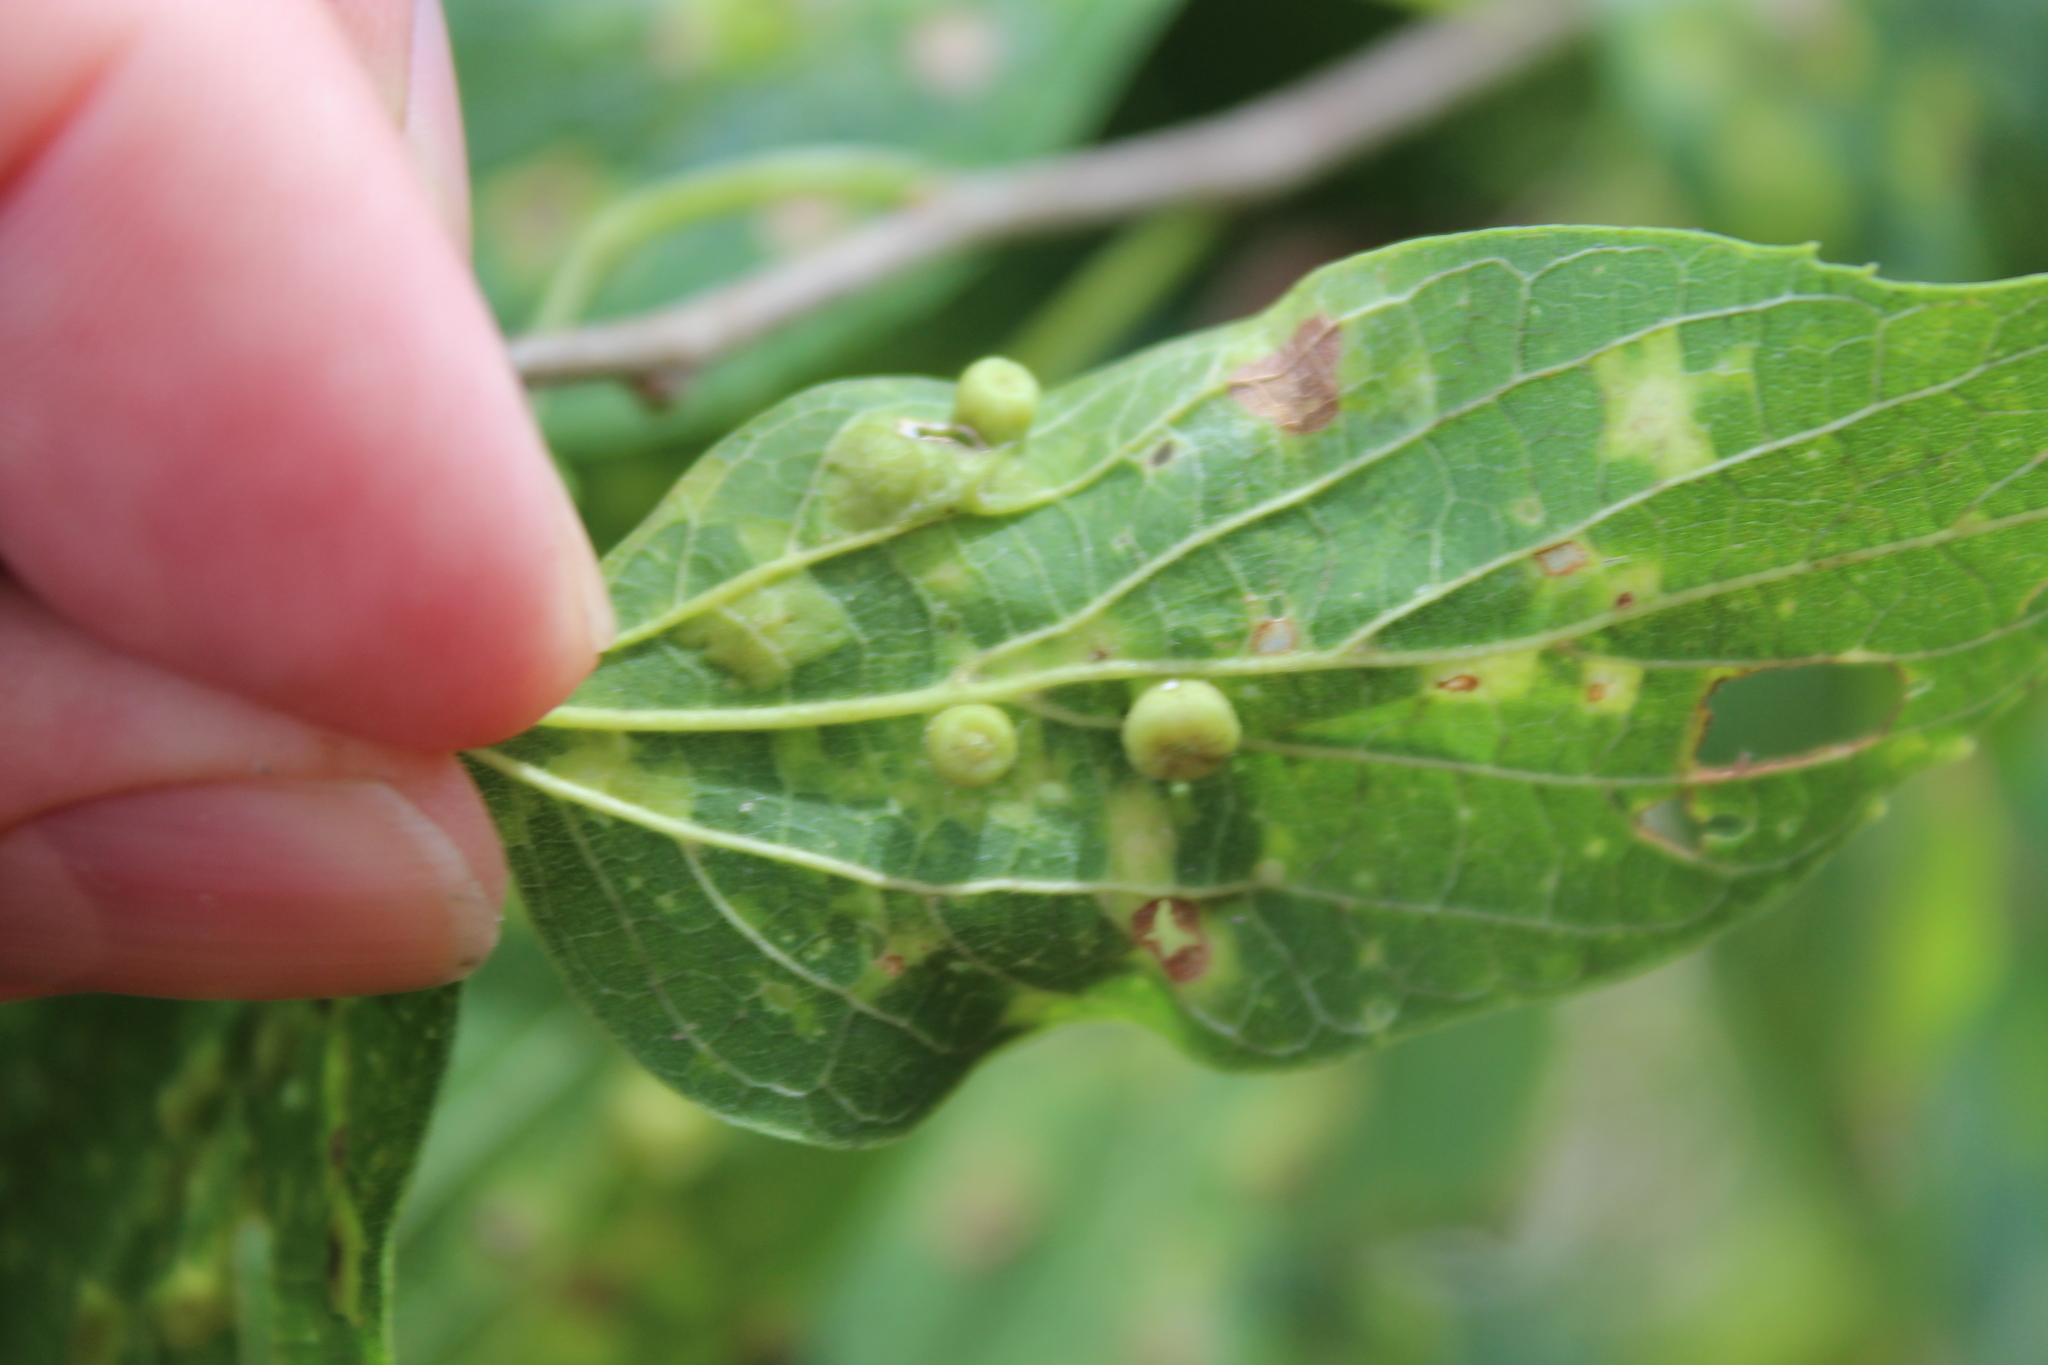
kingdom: Animalia
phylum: Arthropoda
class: Insecta
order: Hemiptera
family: Aphalaridae
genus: Pachypsylla
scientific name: Pachypsylla celtidismamma
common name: Hackberry nipplegall psyllid
